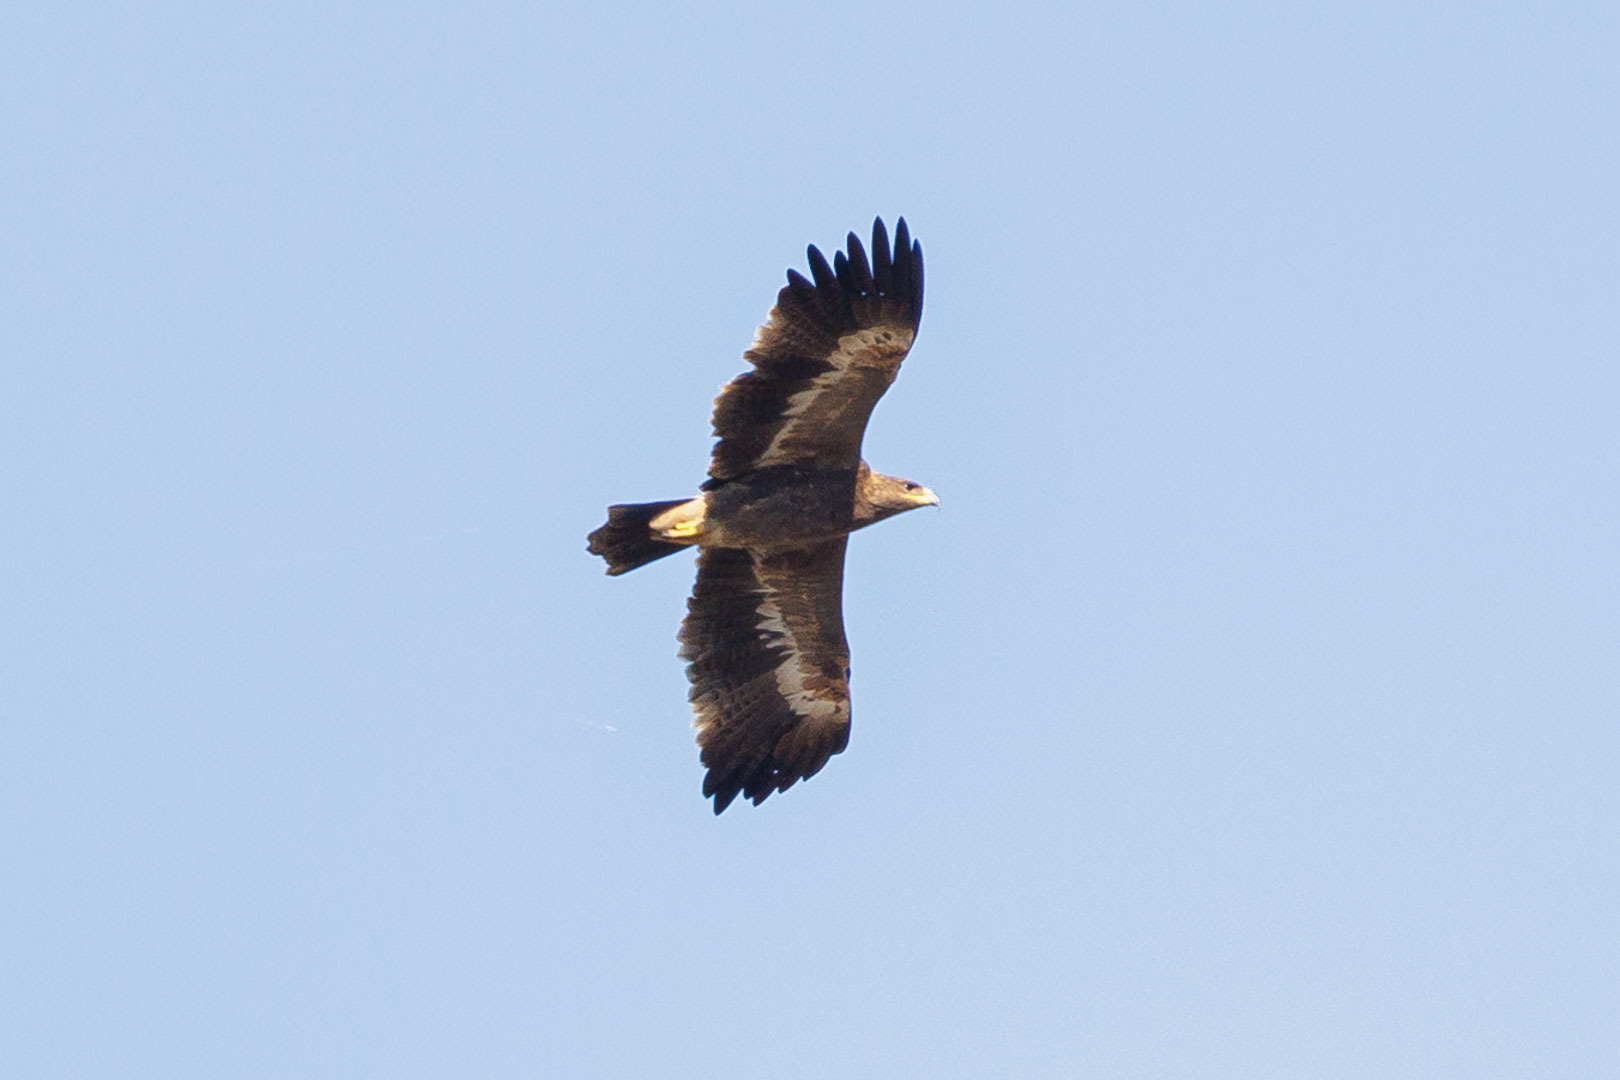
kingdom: Animalia
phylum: Chordata
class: Aves
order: Accipitriformes
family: Accipitridae
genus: Aquila
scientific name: Aquila nipalensis
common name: Steppe eagle
